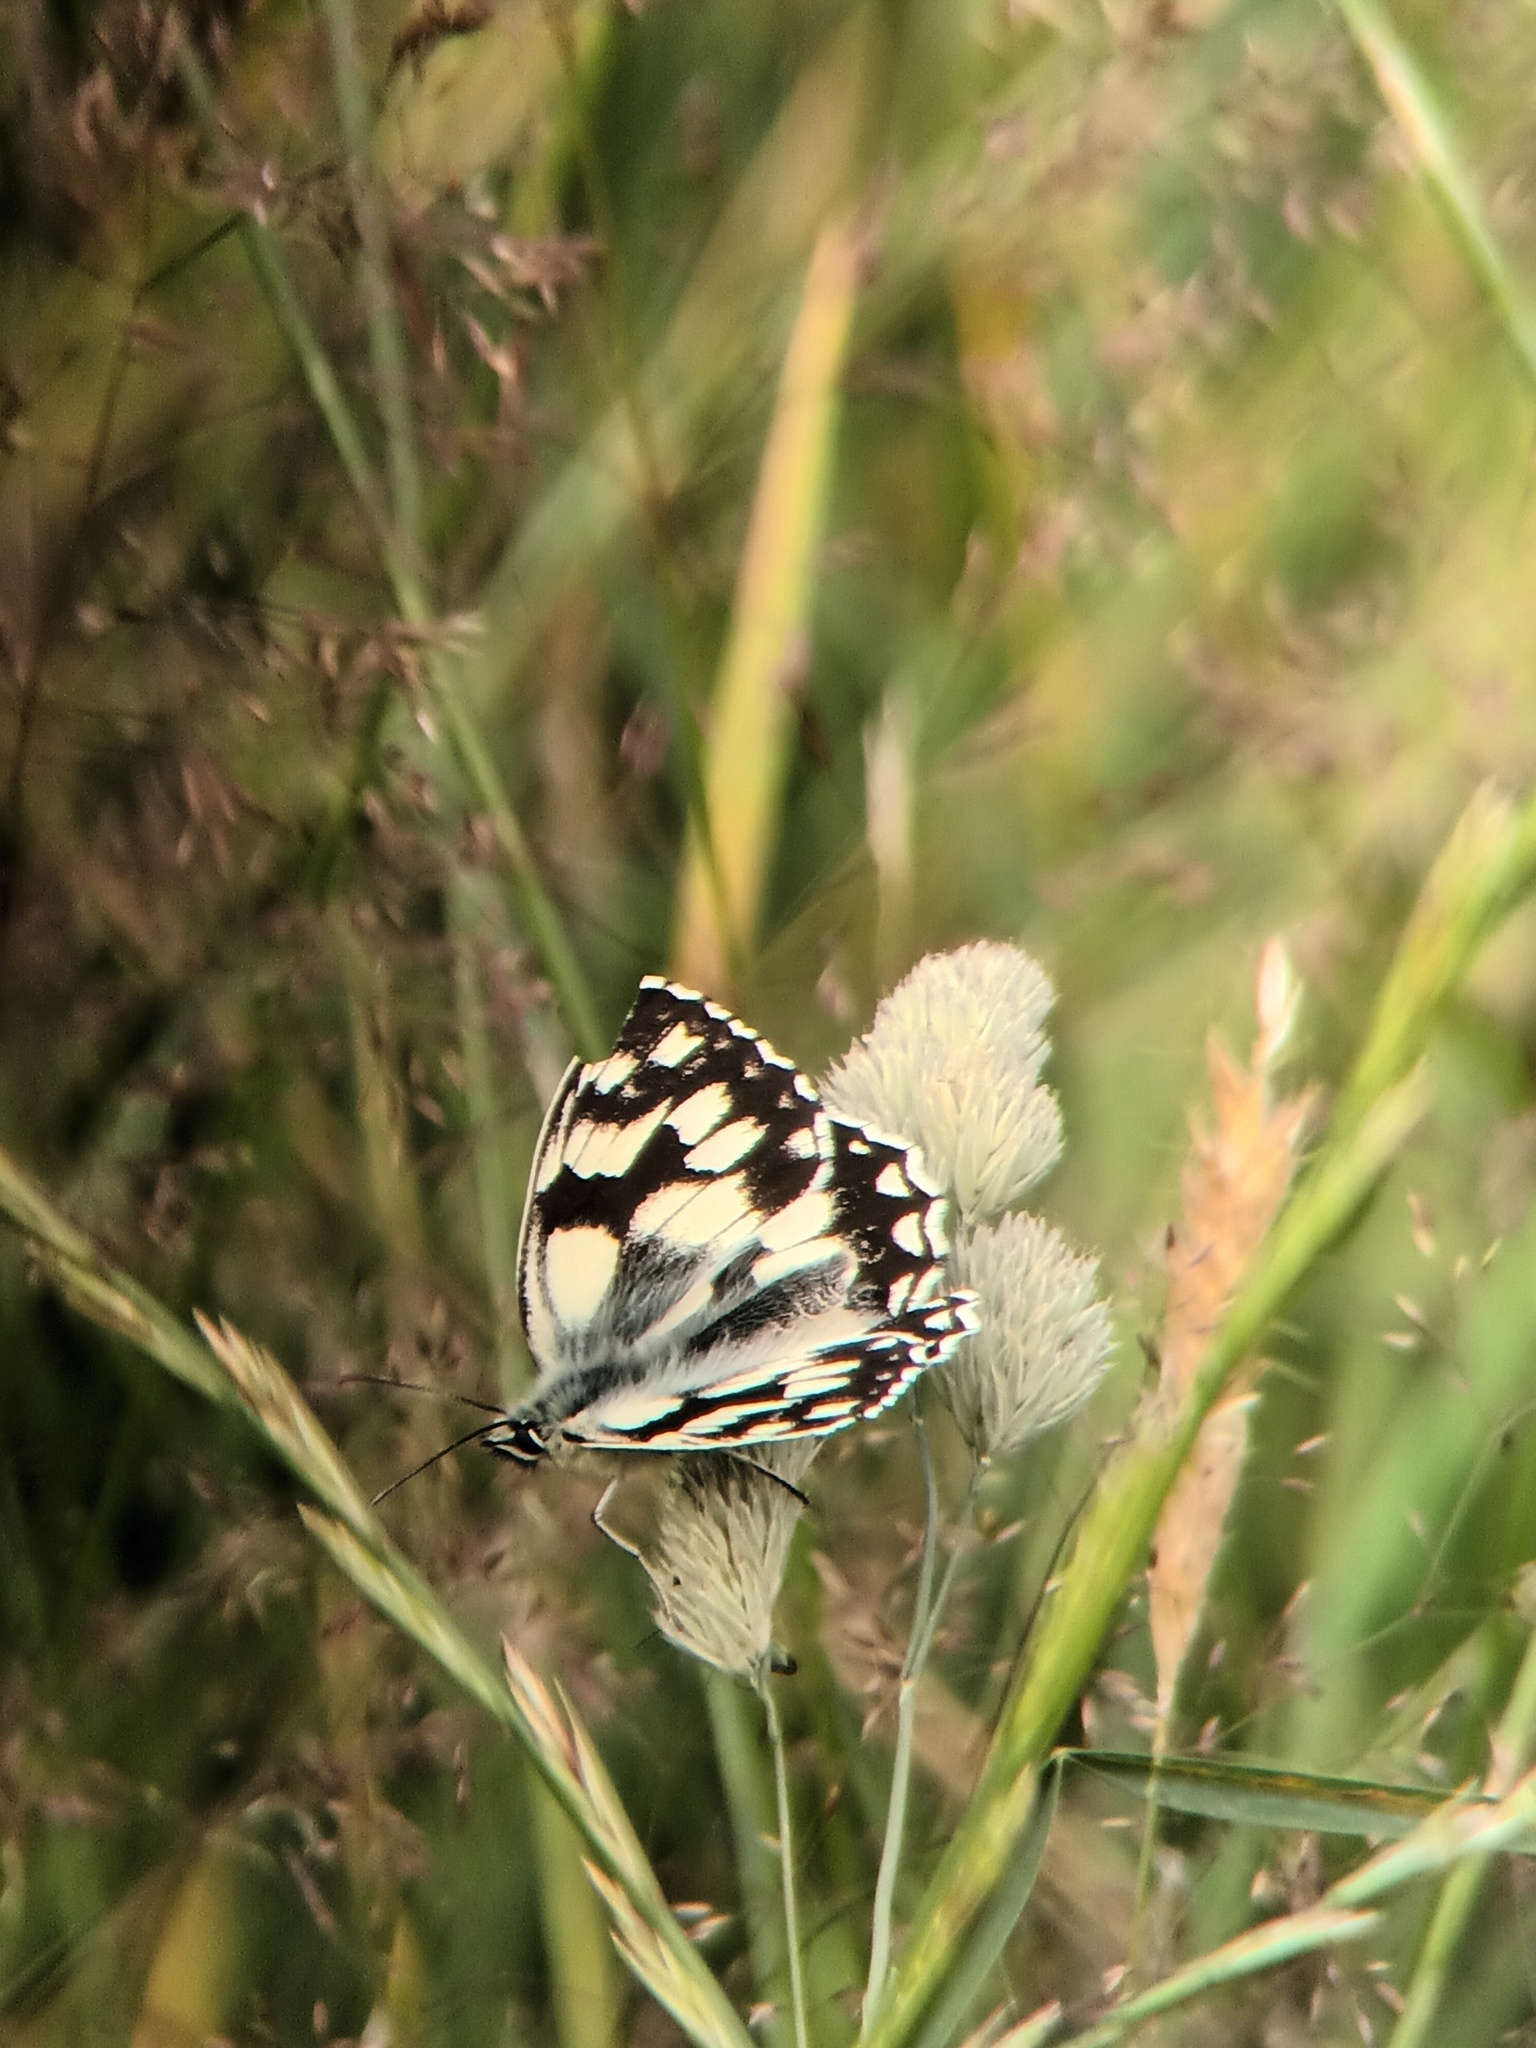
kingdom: Animalia
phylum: Arthropoda
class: Insecta
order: Lepidoptera
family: Nymphalidae
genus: Melanargia
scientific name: Melanargia galathea
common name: Marbled white
